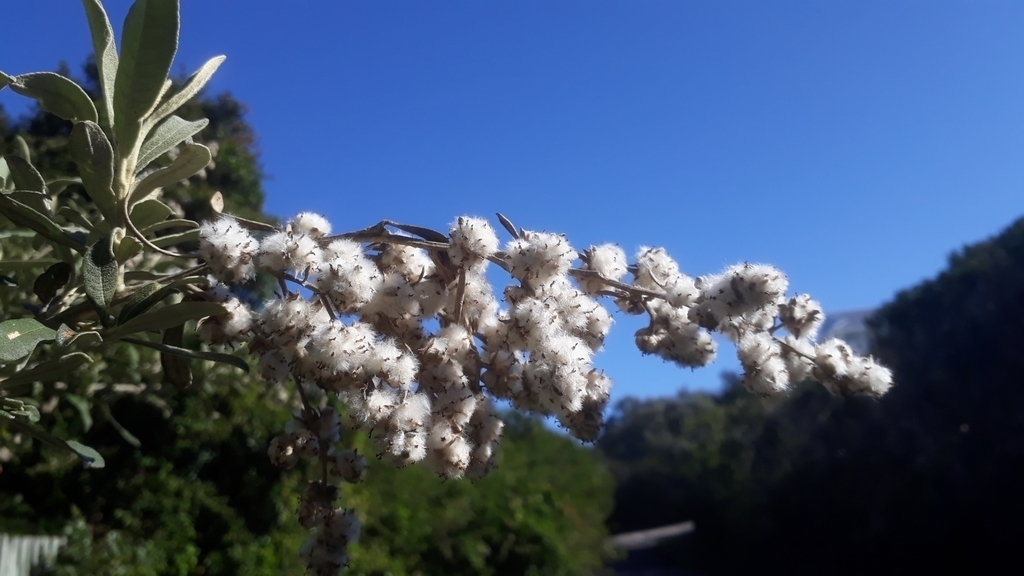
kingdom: Plantae
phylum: Tracheophyta
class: Magnoliopsida
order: Asterales
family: Asteraceae
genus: Tarchonanthus
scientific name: Tarchonanthus littoralis
